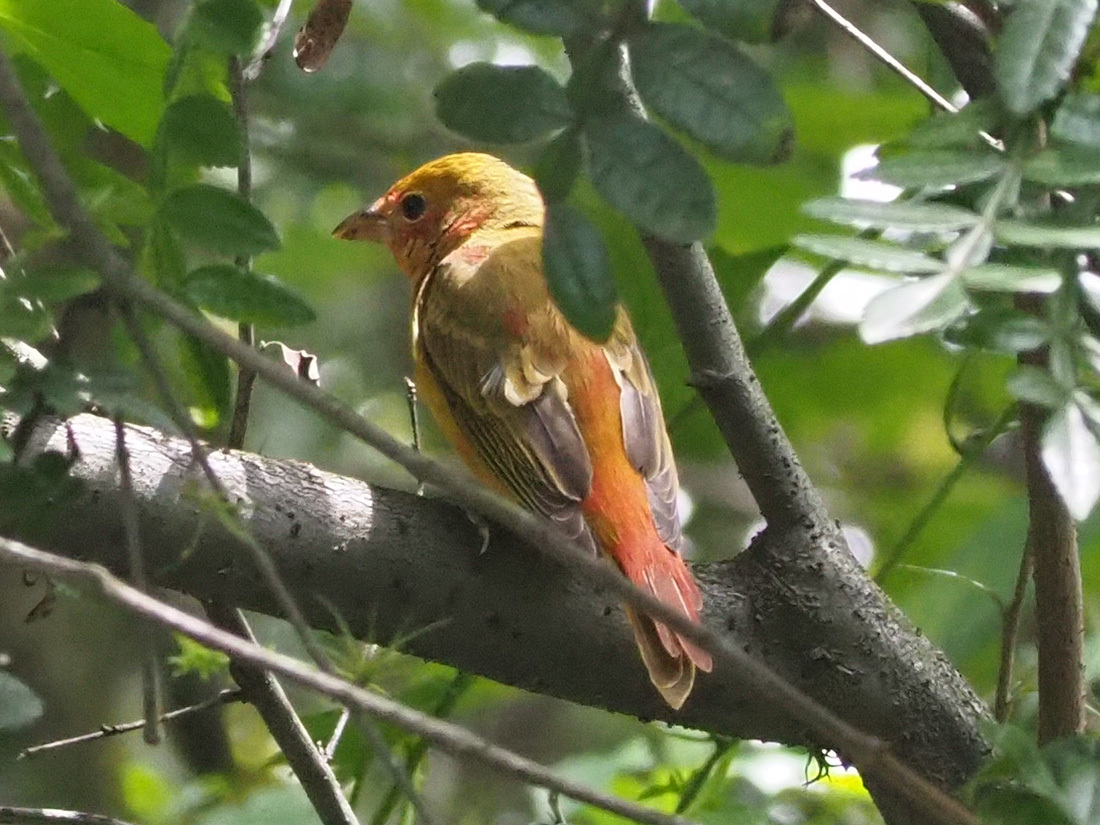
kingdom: Animalia
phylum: Chordata
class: Aves
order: Passeriformes
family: Cardinalidae
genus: Piranga
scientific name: Piranga rubra
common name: Summer tanager
